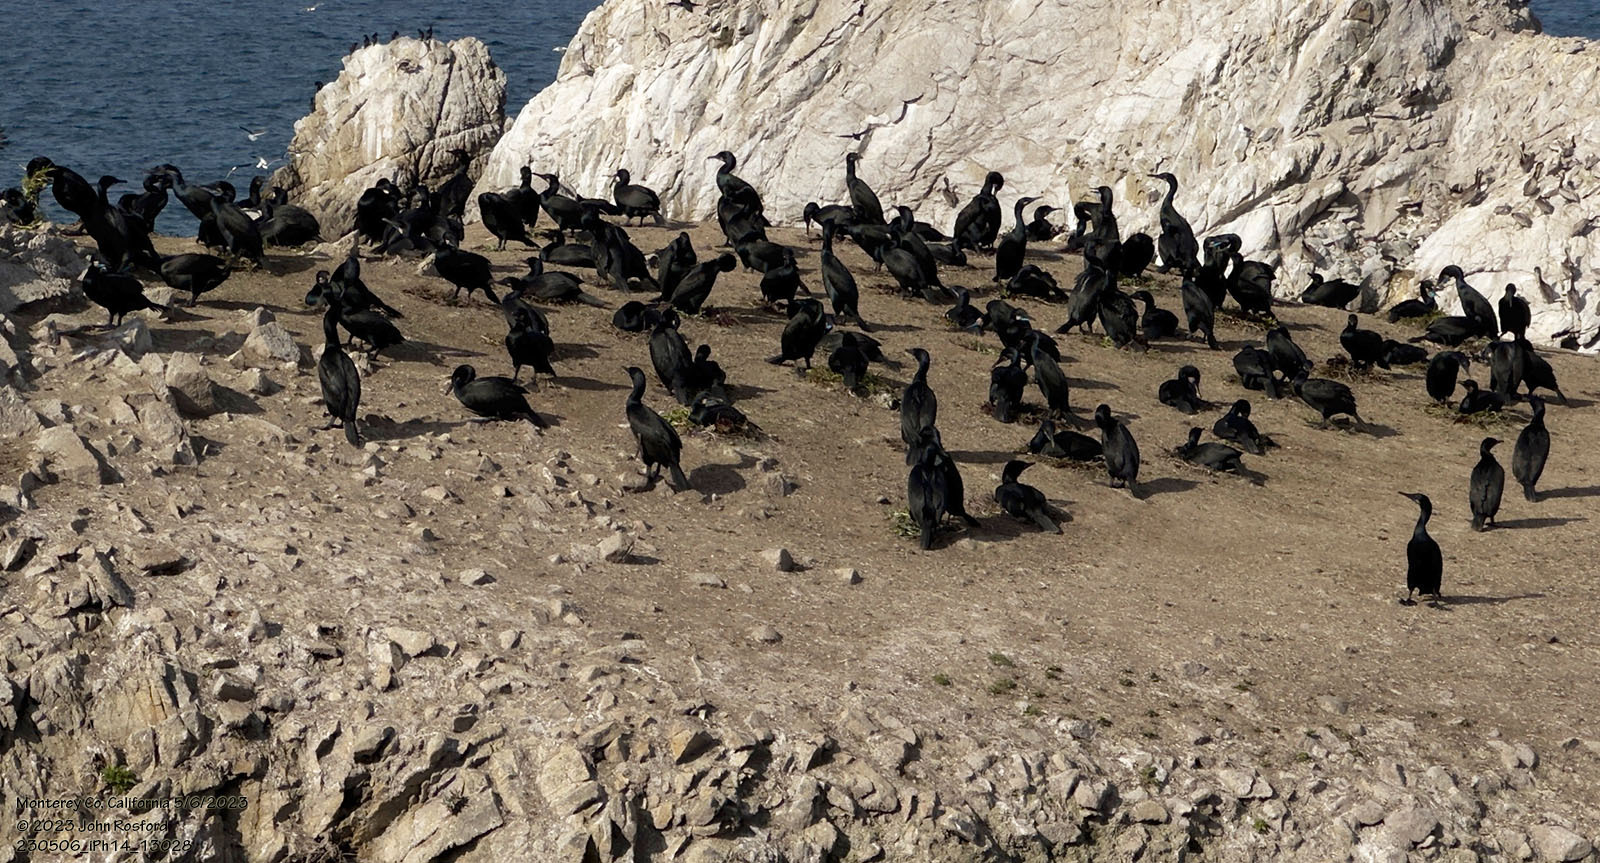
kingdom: Animalia
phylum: Chordata
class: Aves
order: Suliformes
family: Phalacrocoracidae
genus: Urile
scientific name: Urile penicillatus
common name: Brandt's cormorant
